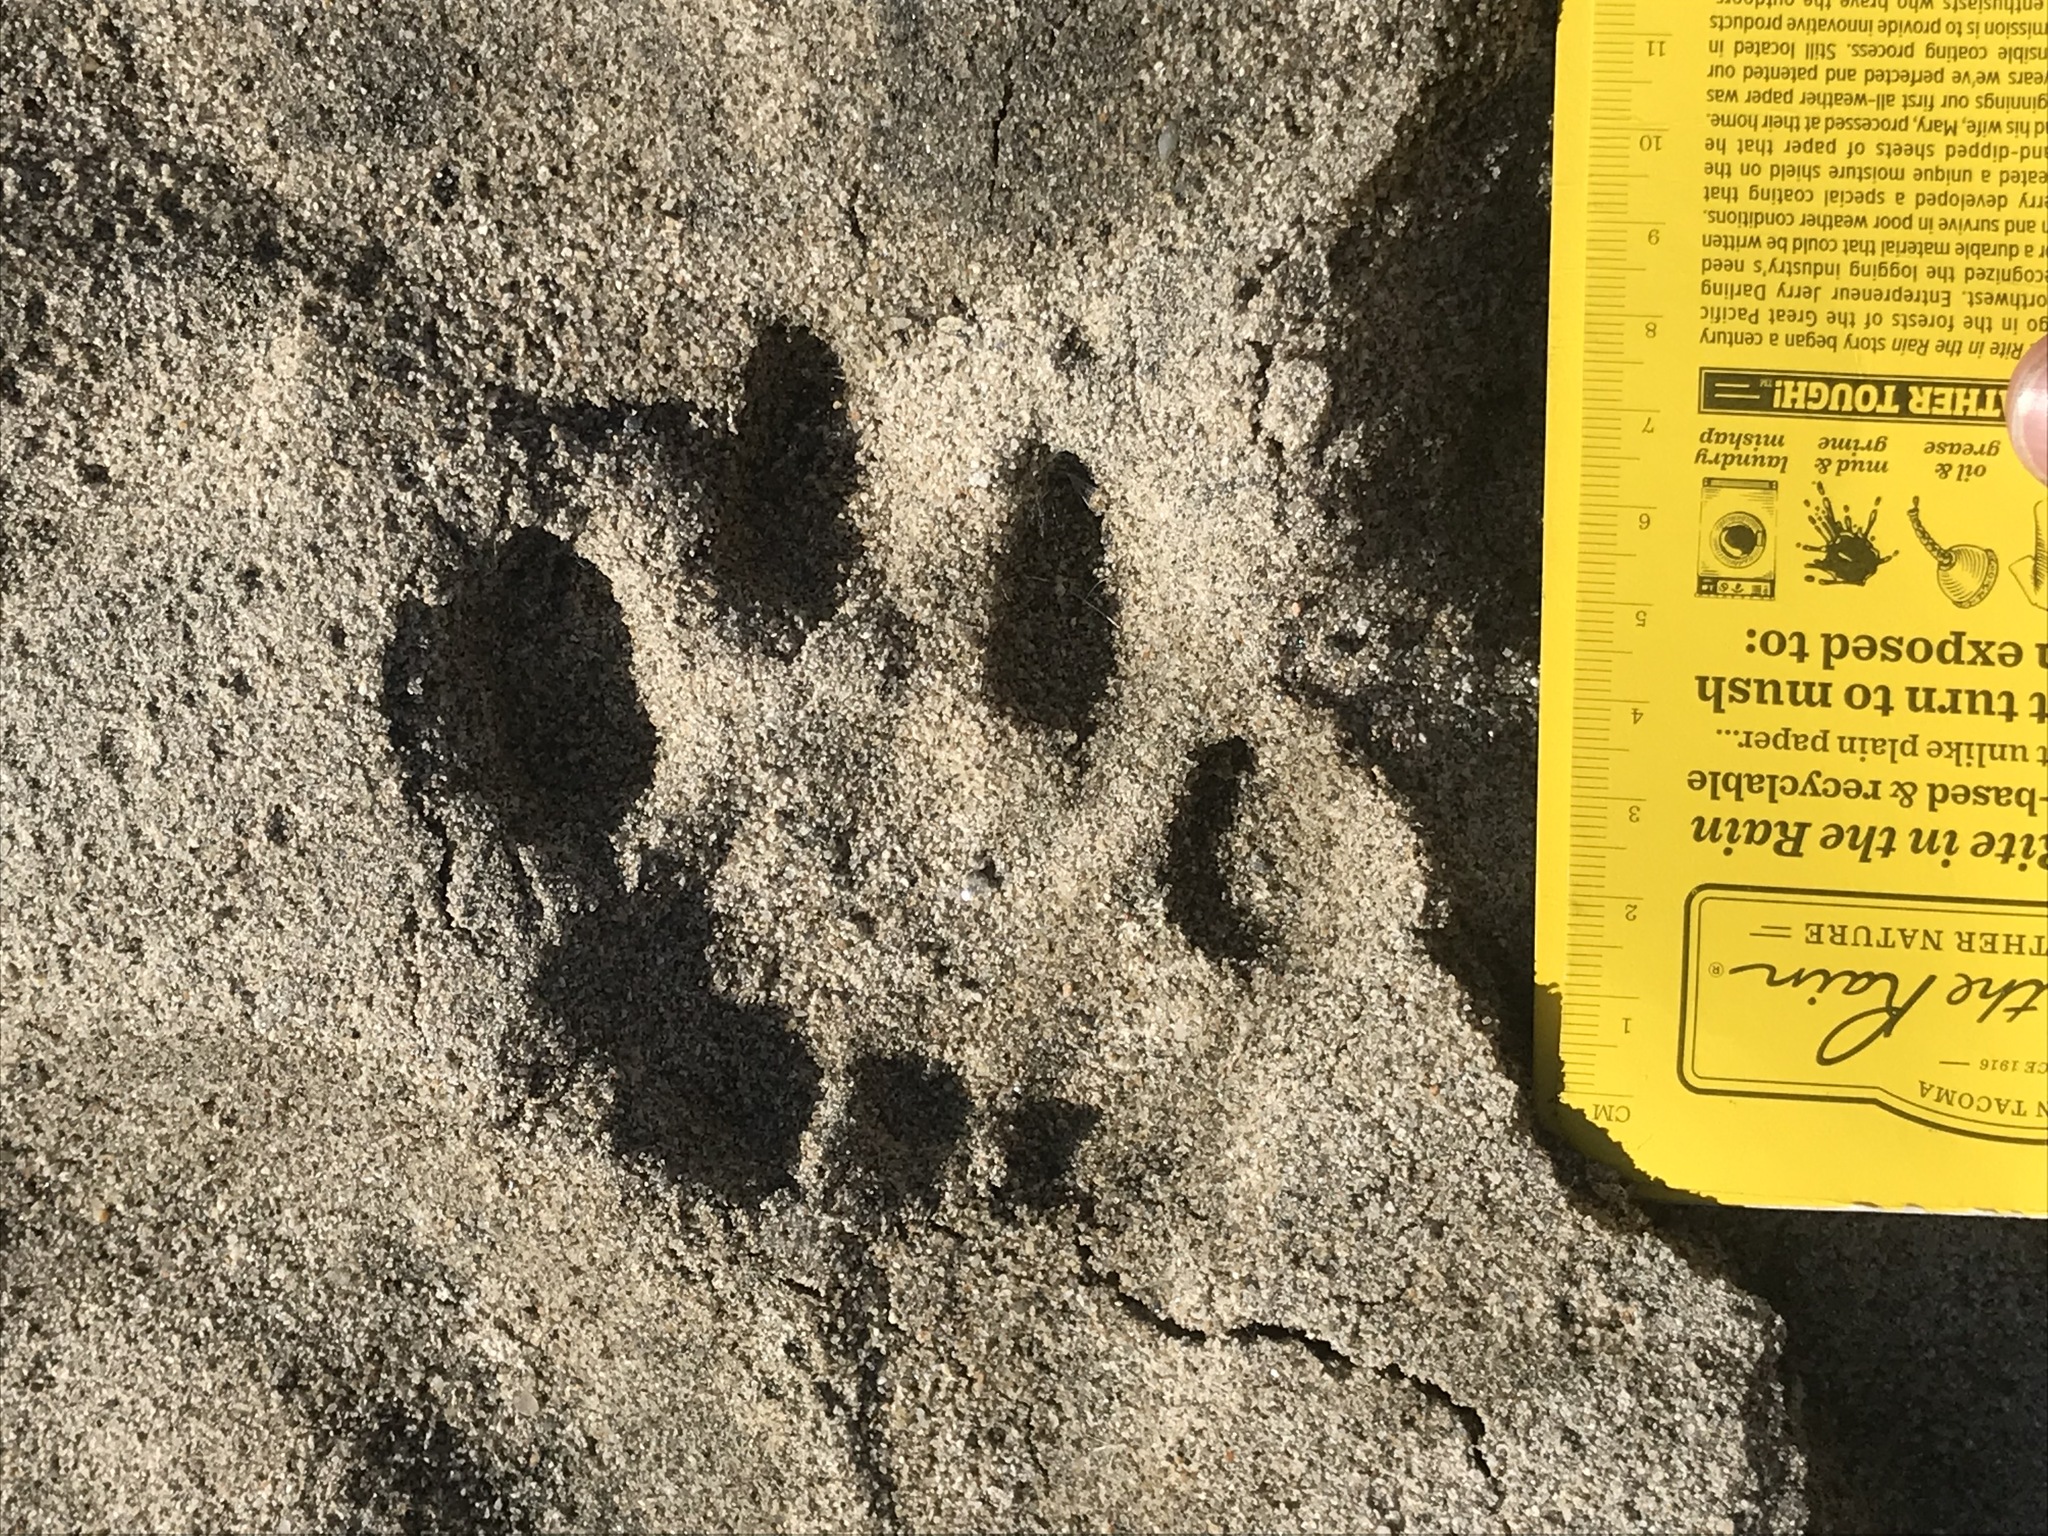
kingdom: Animalia
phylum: Chordata
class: Mammalia
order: Carnivora
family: Felidae
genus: Puma
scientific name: Puma concolor
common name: Puma
